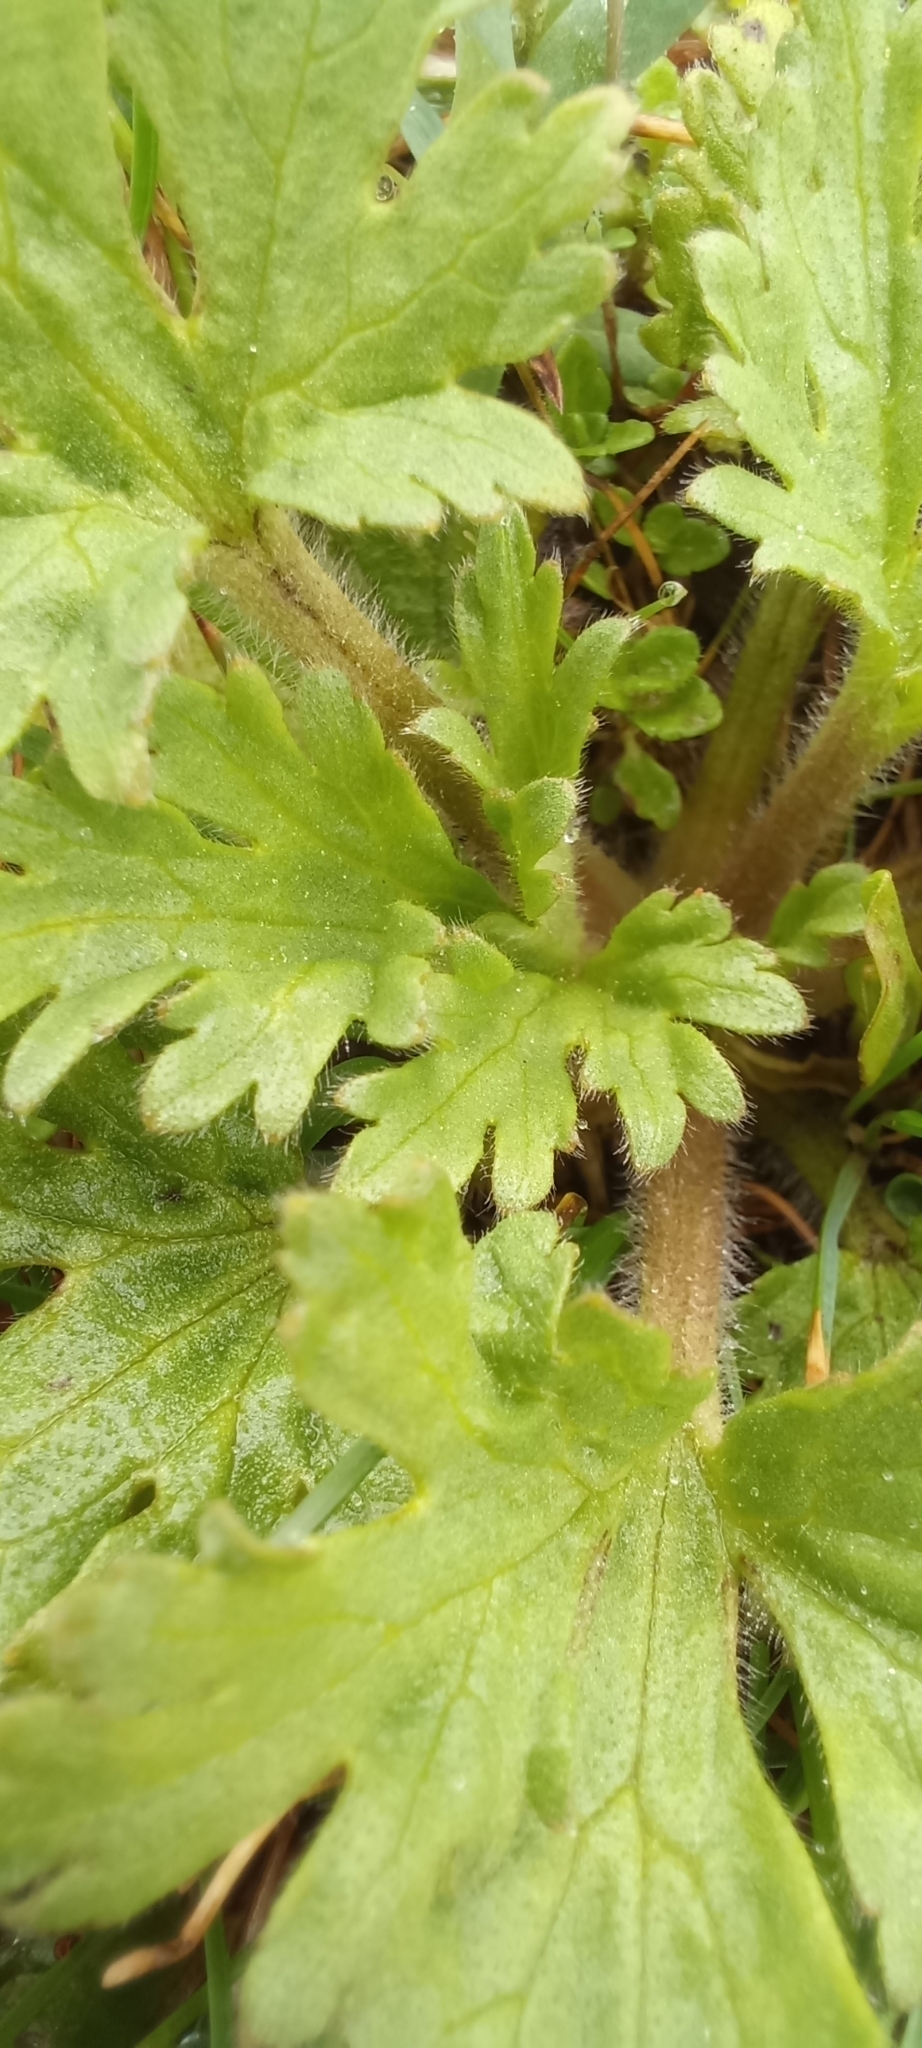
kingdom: Plantae
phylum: Tracheophyta
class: Magnoliopsida
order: Ranunculales
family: Ranunculaceae
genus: Ranunculus
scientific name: Ranunculus oxyspermus
